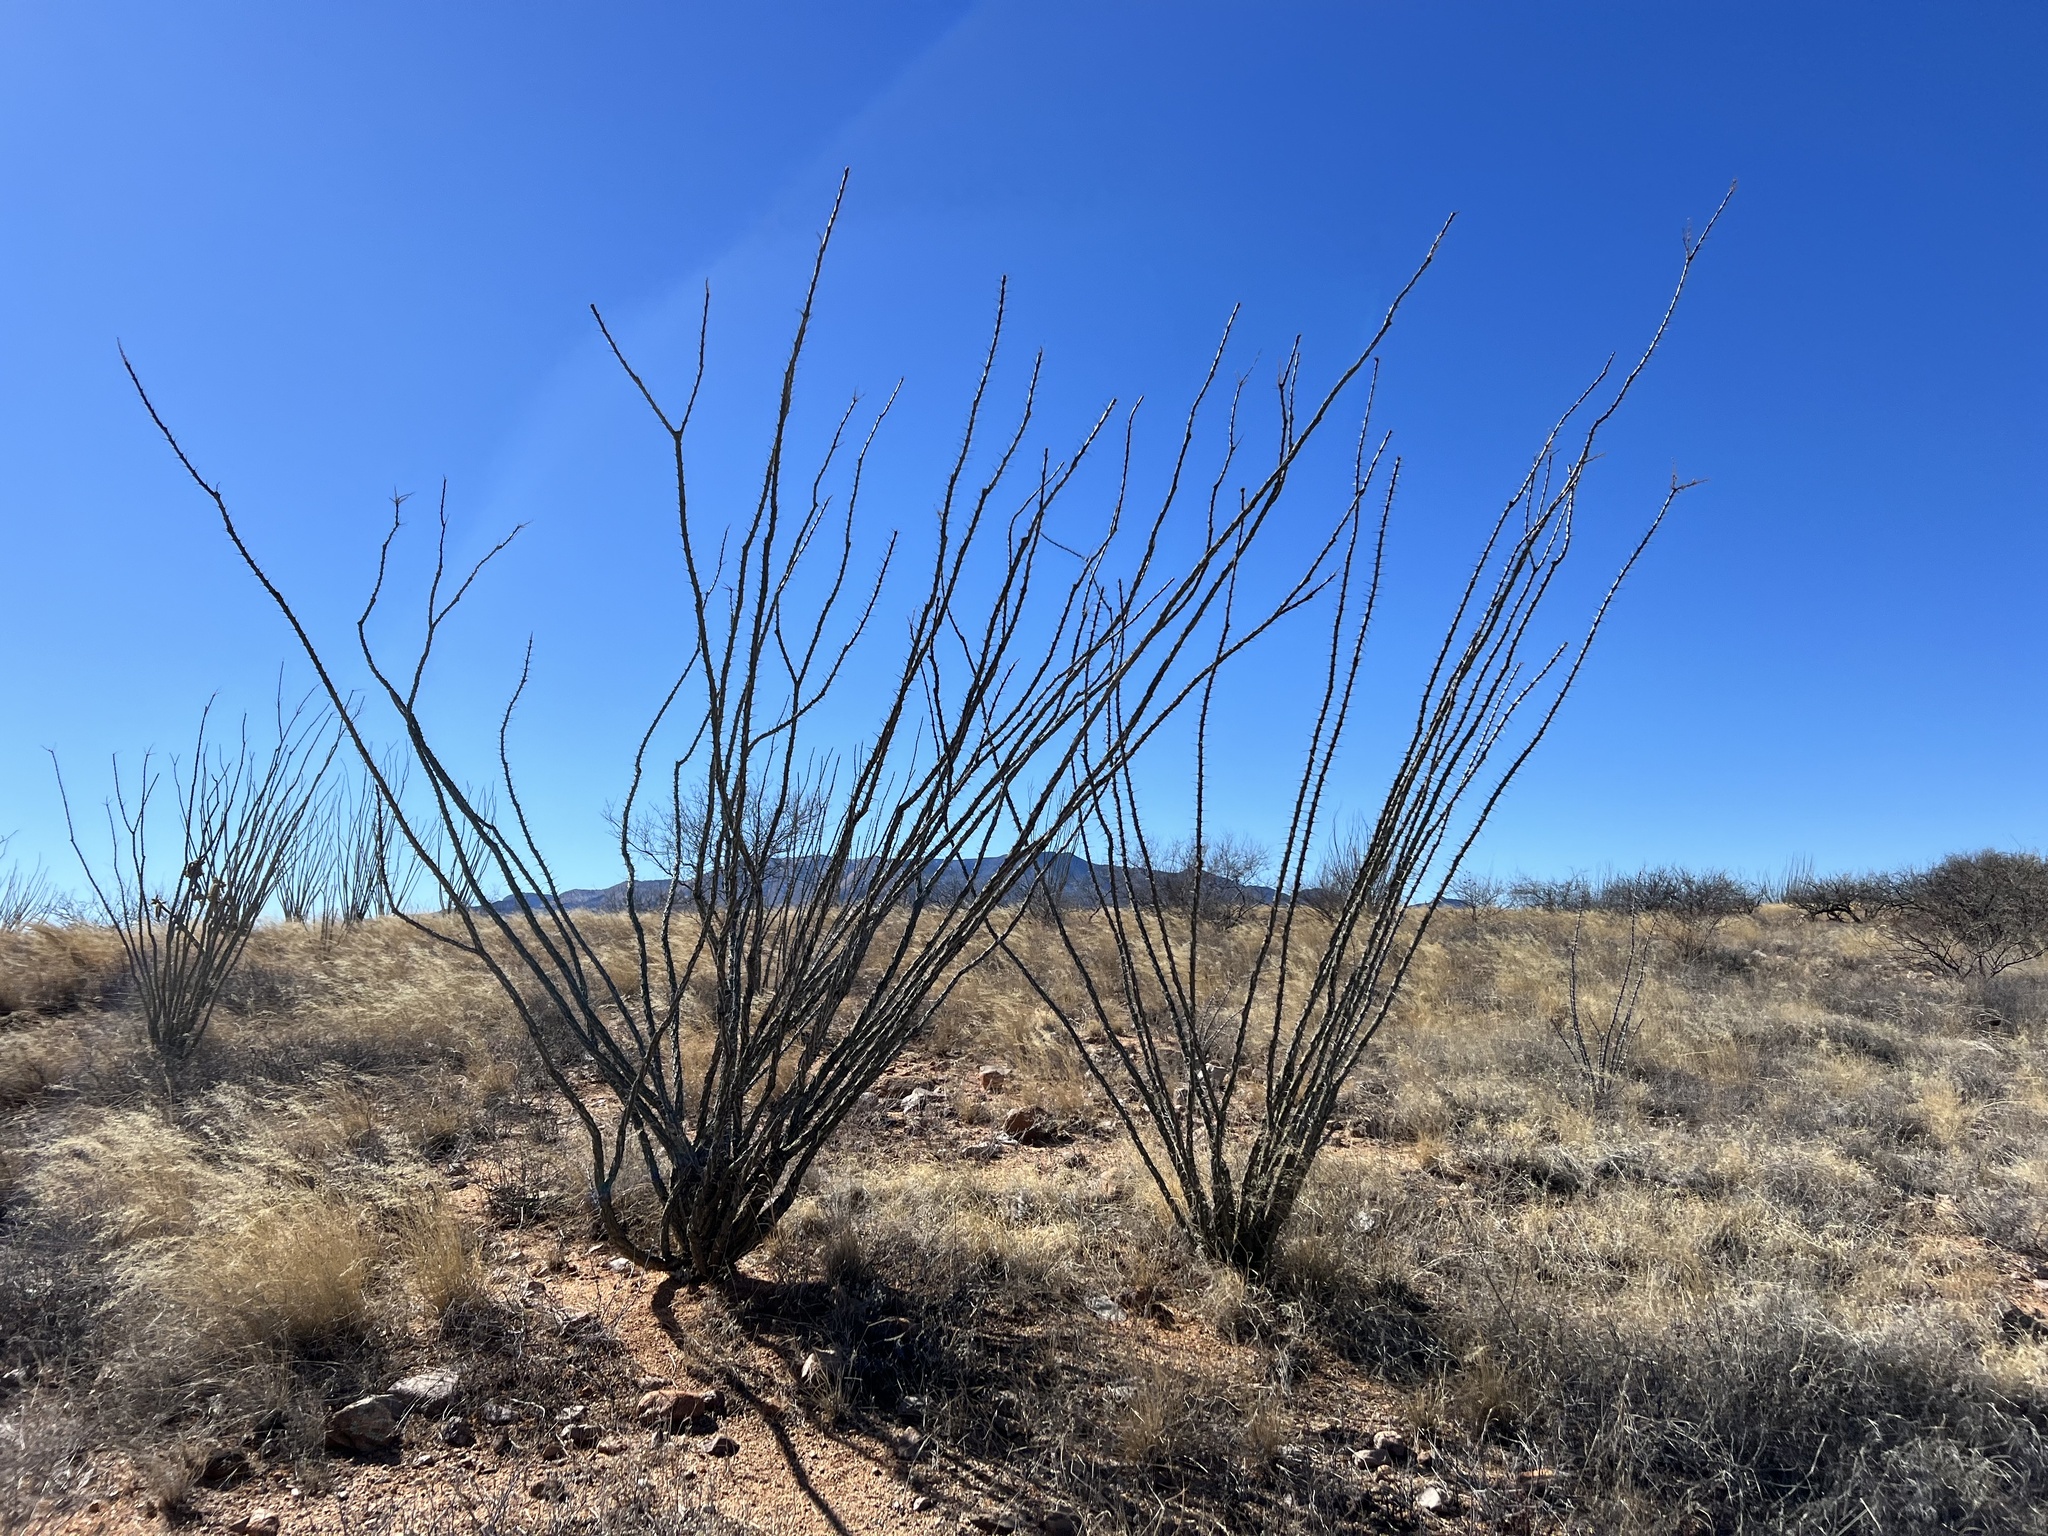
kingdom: Plantae
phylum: Tracheophyta
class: Magnoliopsida
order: Ericales
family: Fouquieriaceae
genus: Fouquieria
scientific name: Fouquieria splendens
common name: Vine-cactus
